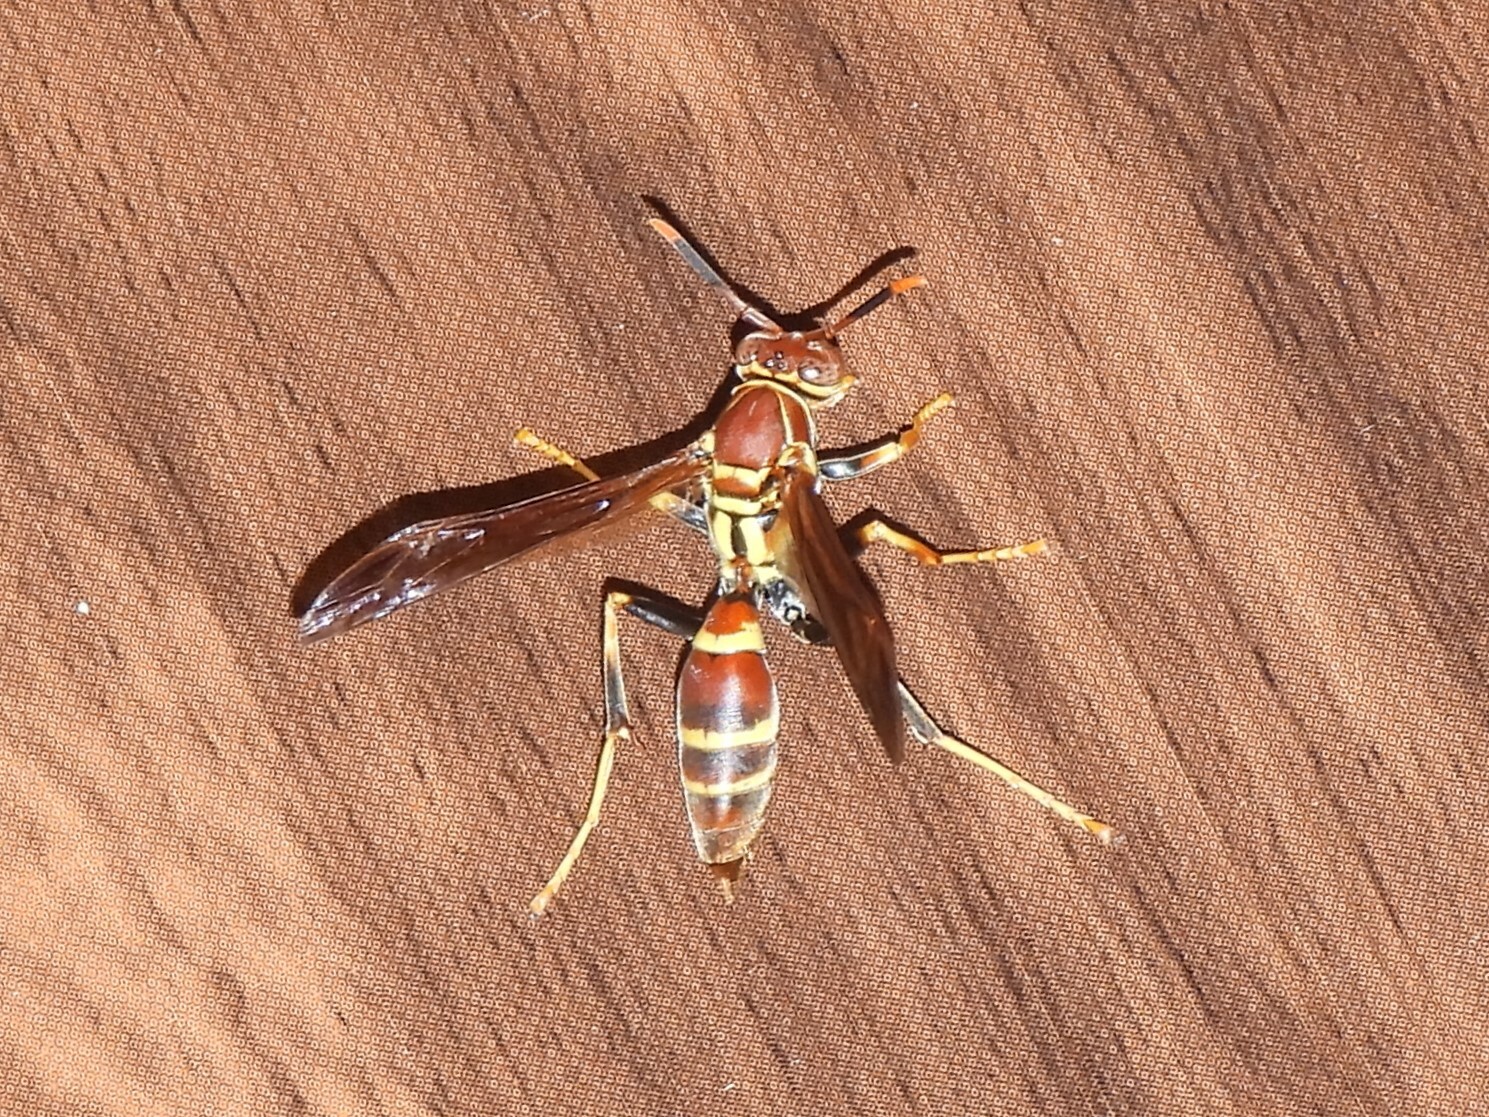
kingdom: Animalia
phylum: Arthropoda
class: Insecta
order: Hymenoptera
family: Eumenidae
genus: Polistes
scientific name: Polistes instabilis
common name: Unstable paper wasp
